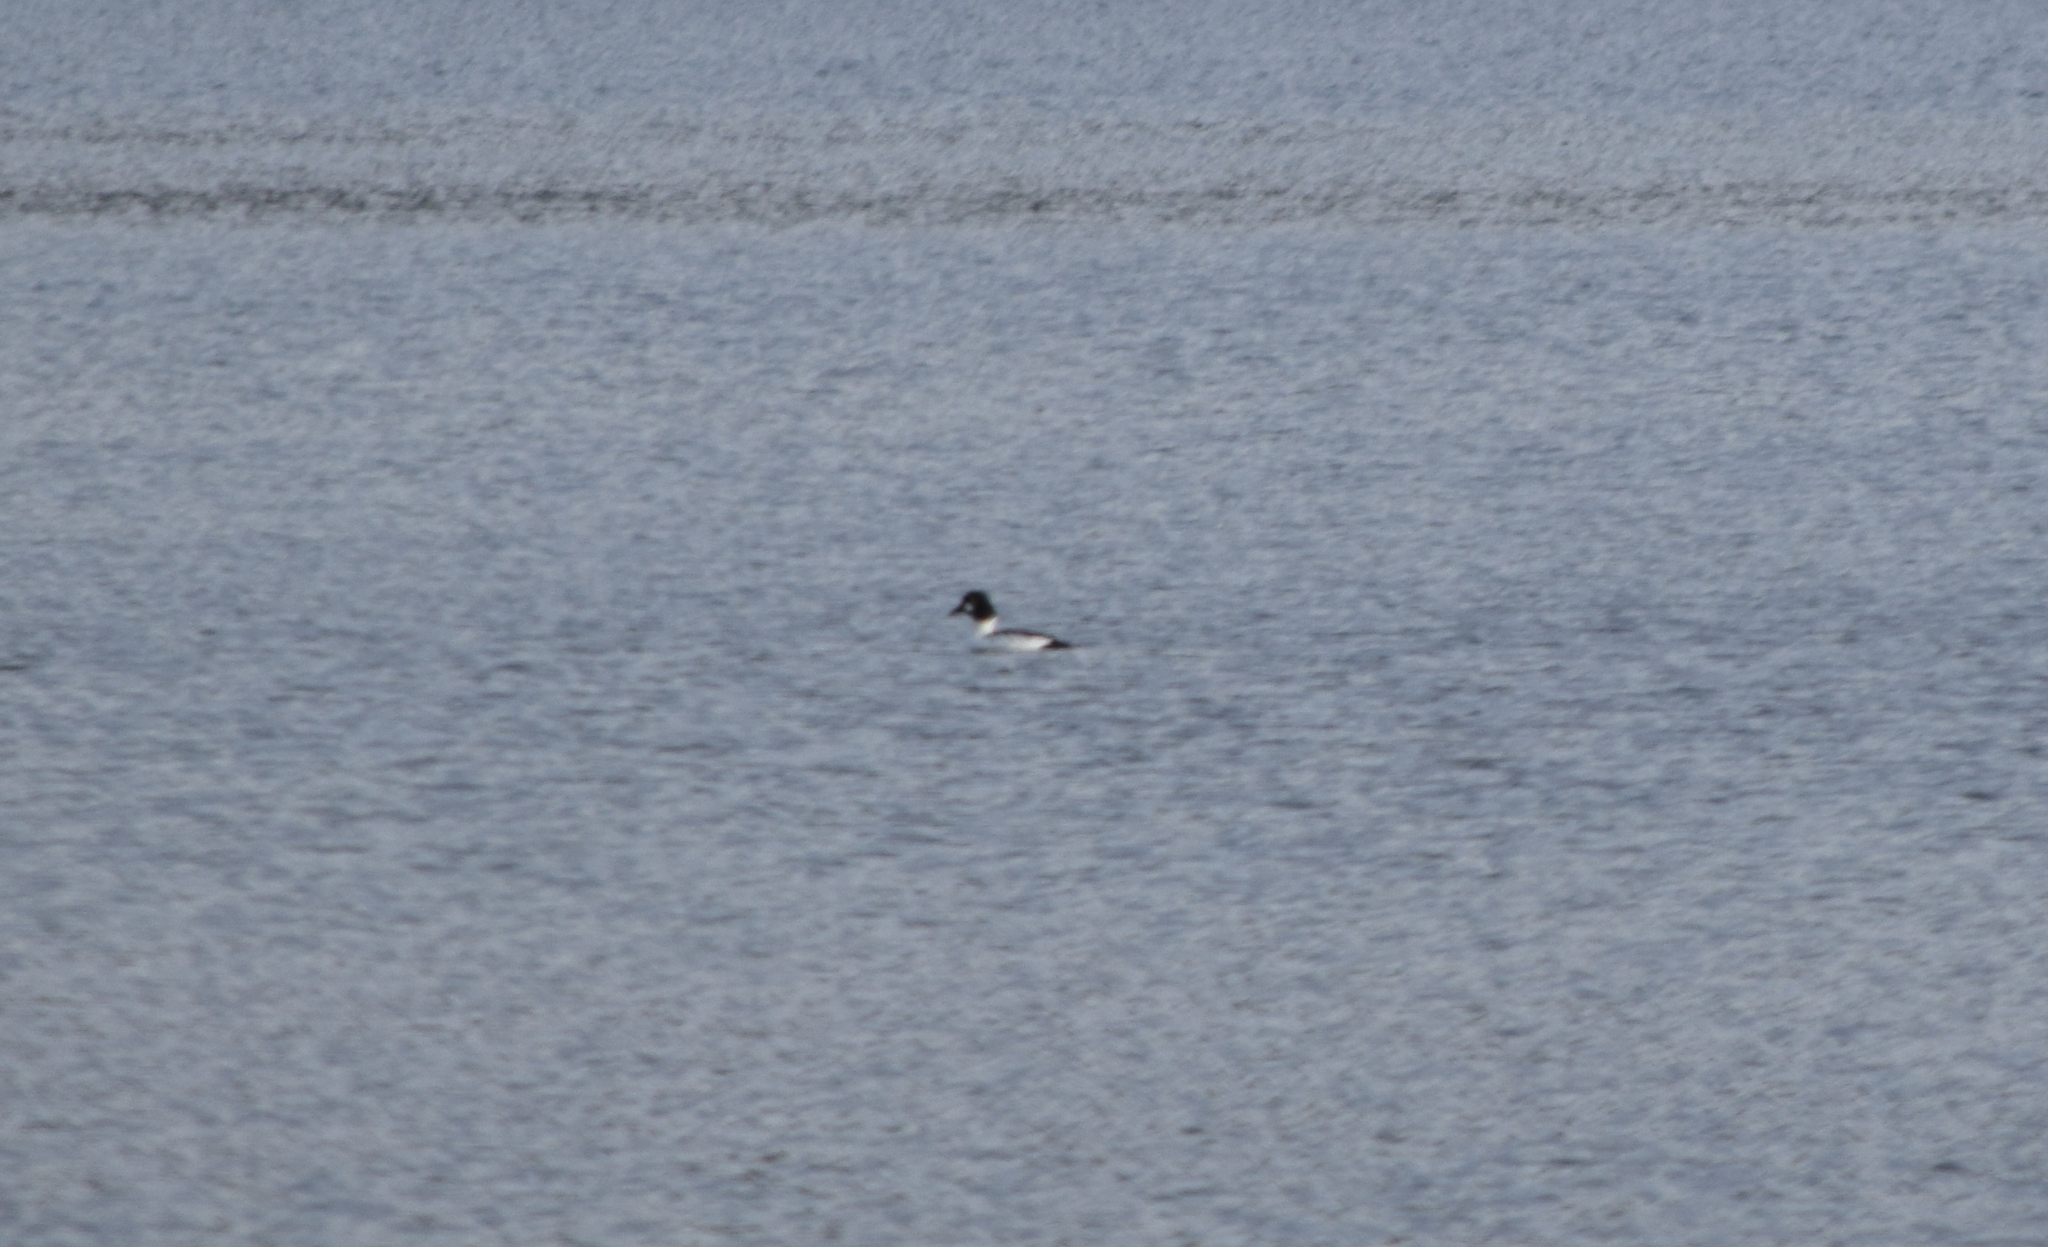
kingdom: Animalia
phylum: Chordata
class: Aves
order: Anseriformes
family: Anatidae
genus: Bucephala
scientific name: Bucephala clangula
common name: Common goldeneye
